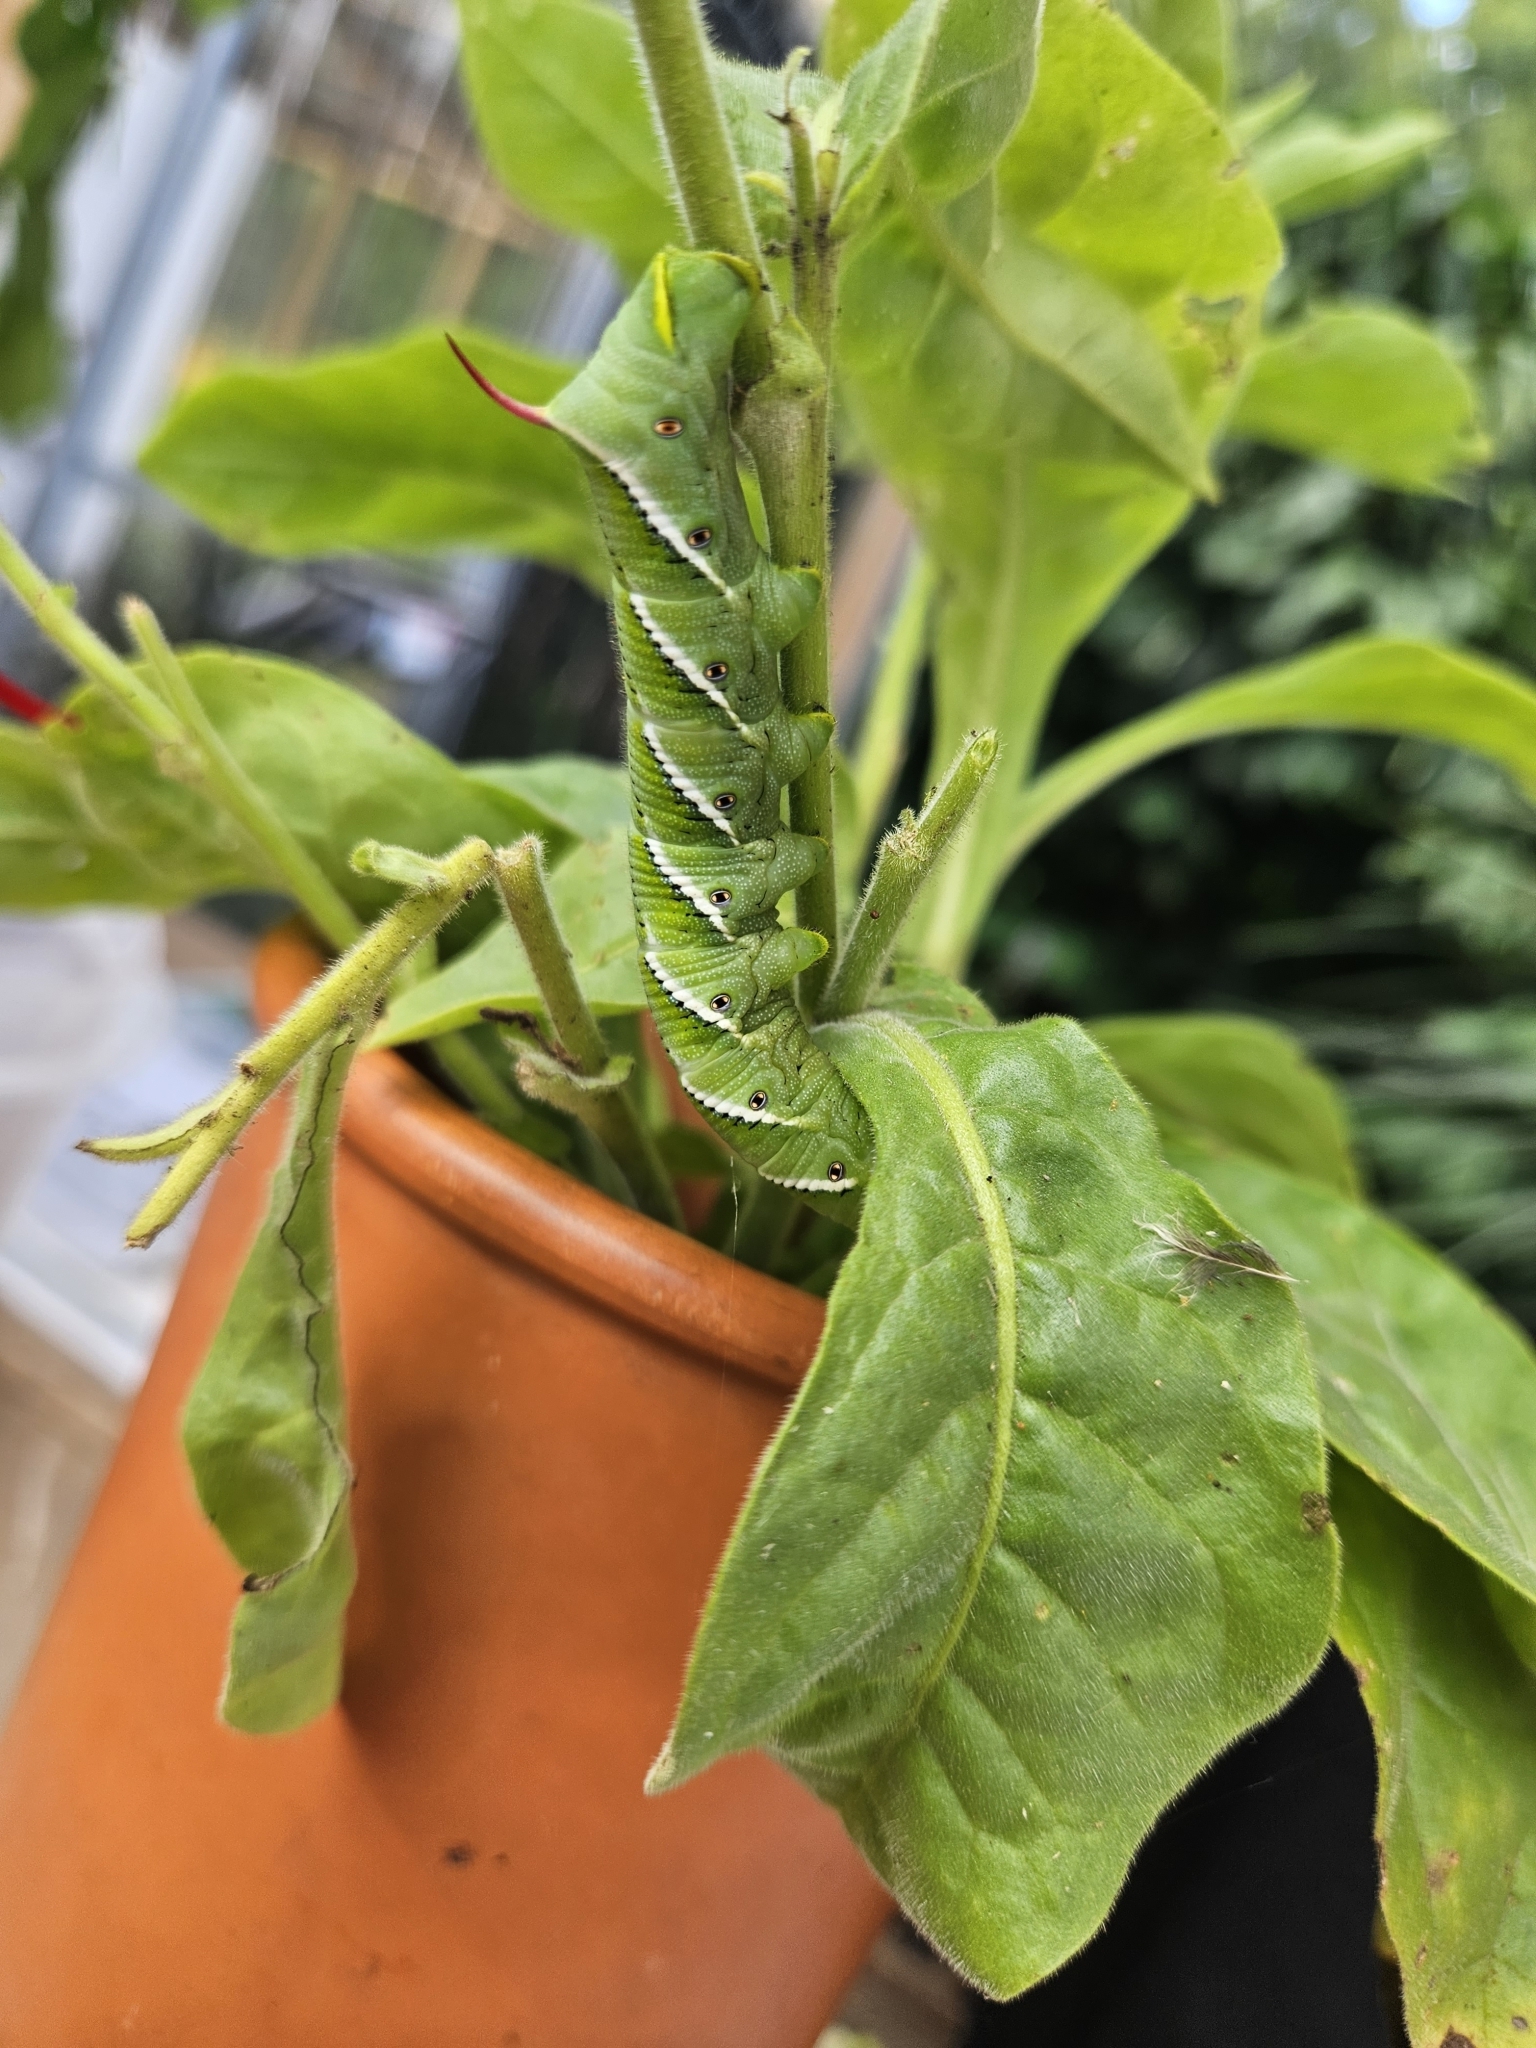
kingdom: Animalia
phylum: Arthropoda
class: Insecta
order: Lepidoptera
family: Sphingidae
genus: Manduca
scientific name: Manduca sexta
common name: Carolina sphinx
